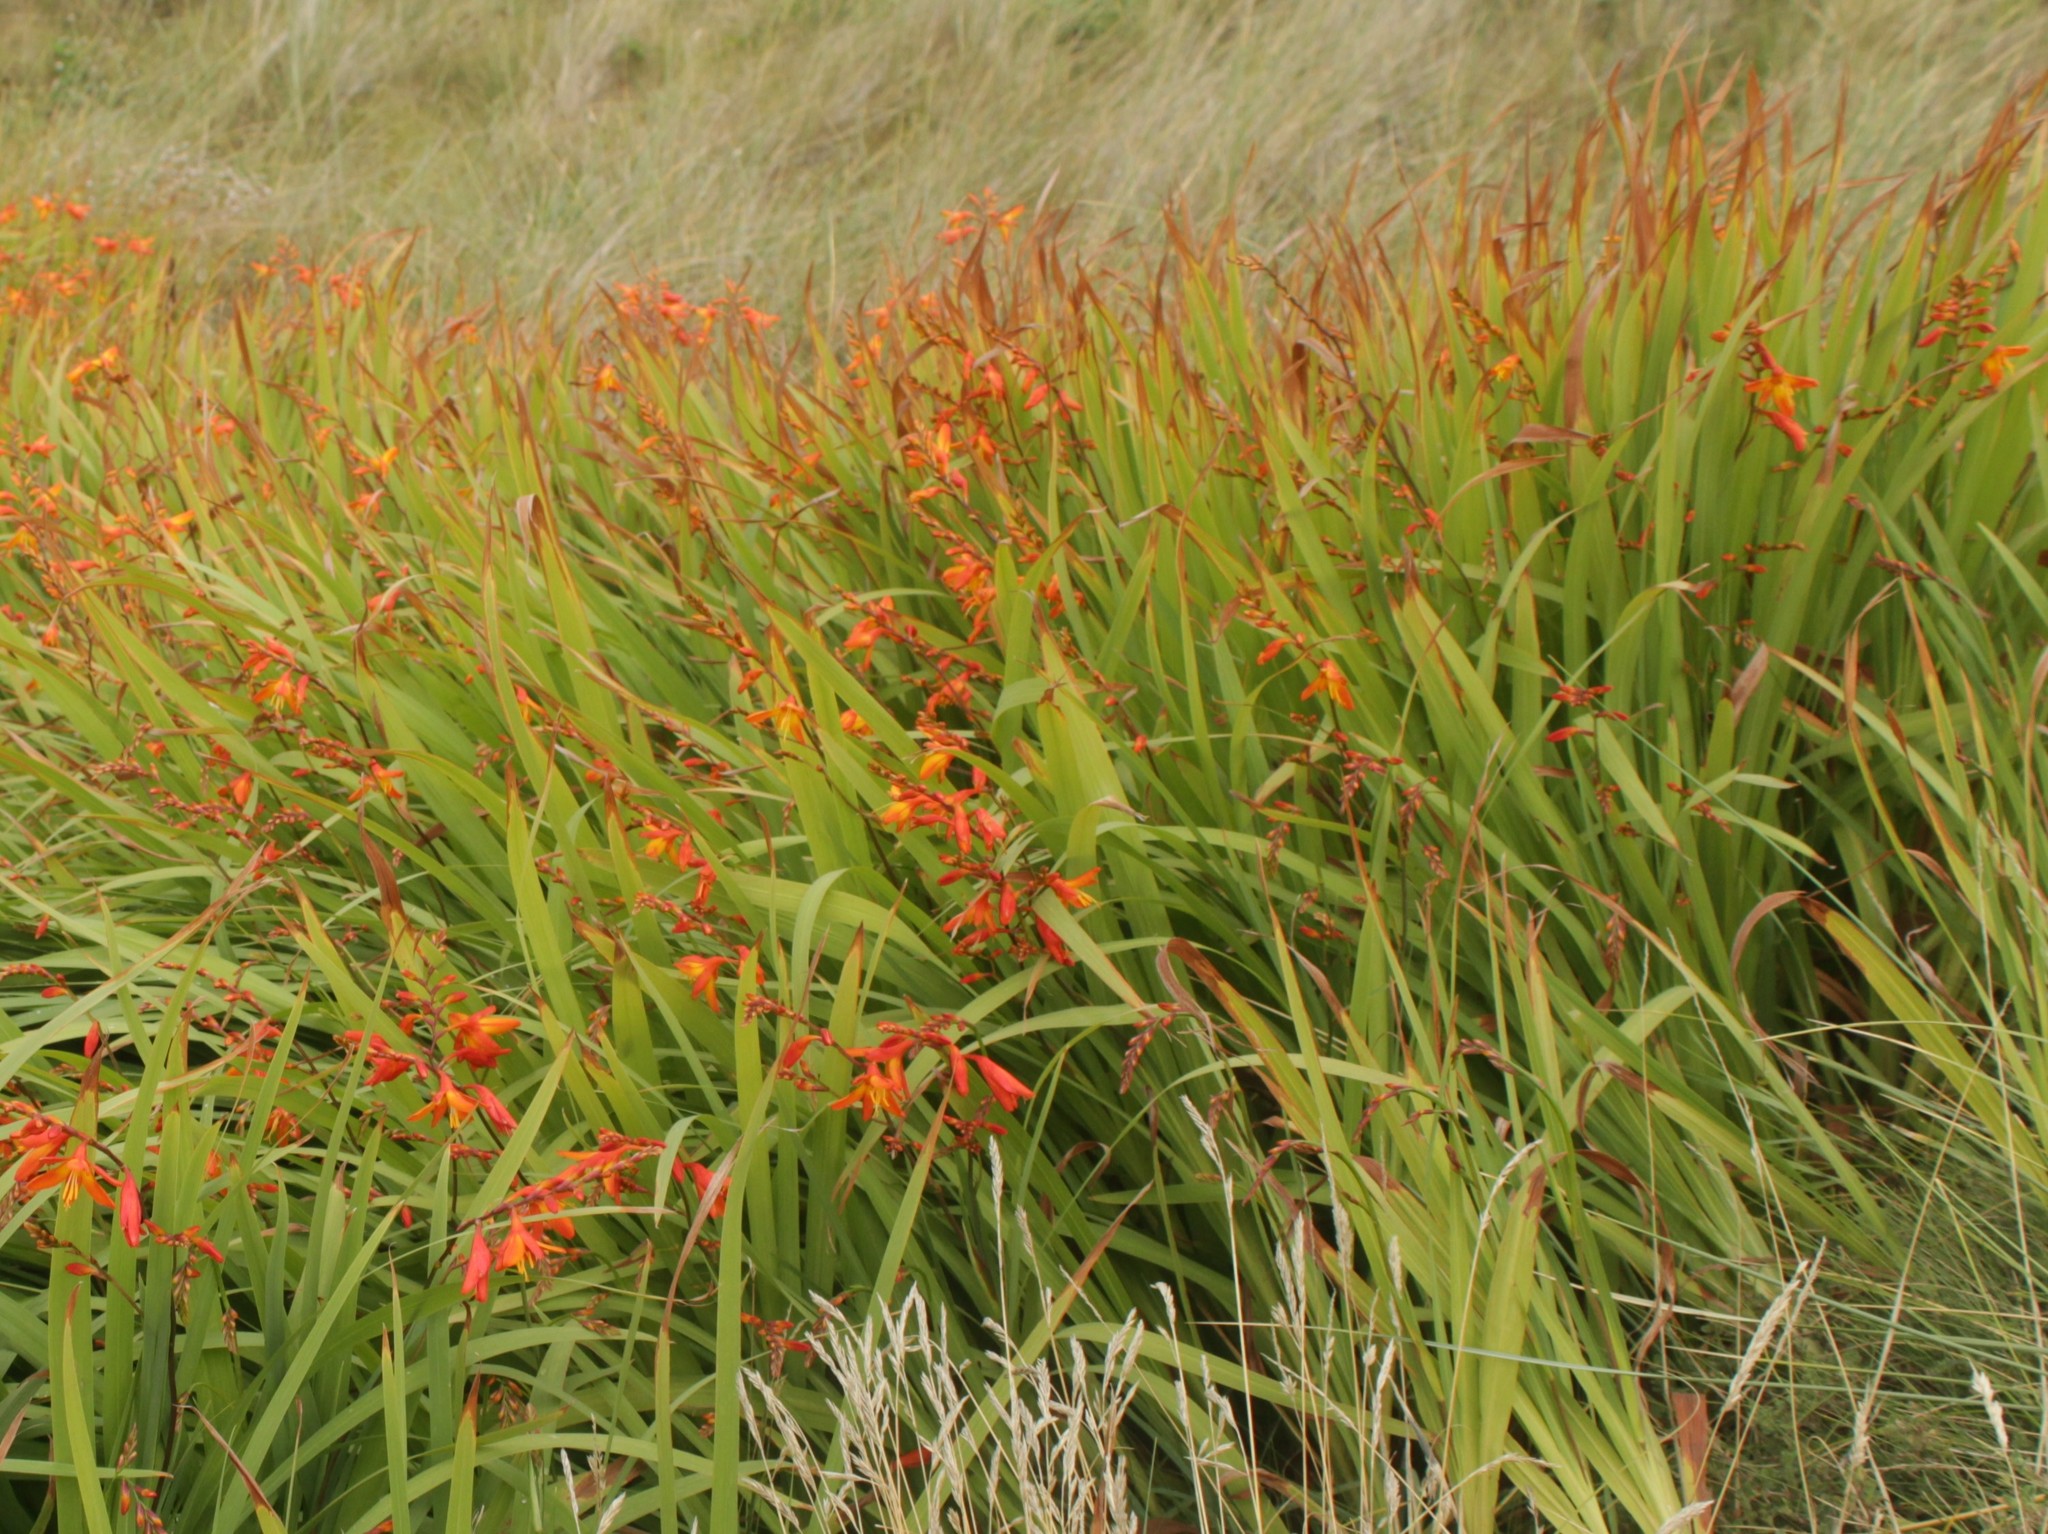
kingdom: Plantae
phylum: Tracheophyta
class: Liliopsida
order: Asparagales
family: Iridaceae
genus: Crocosmia
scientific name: Crocosmia crocosmiiflora
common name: Montbretia
